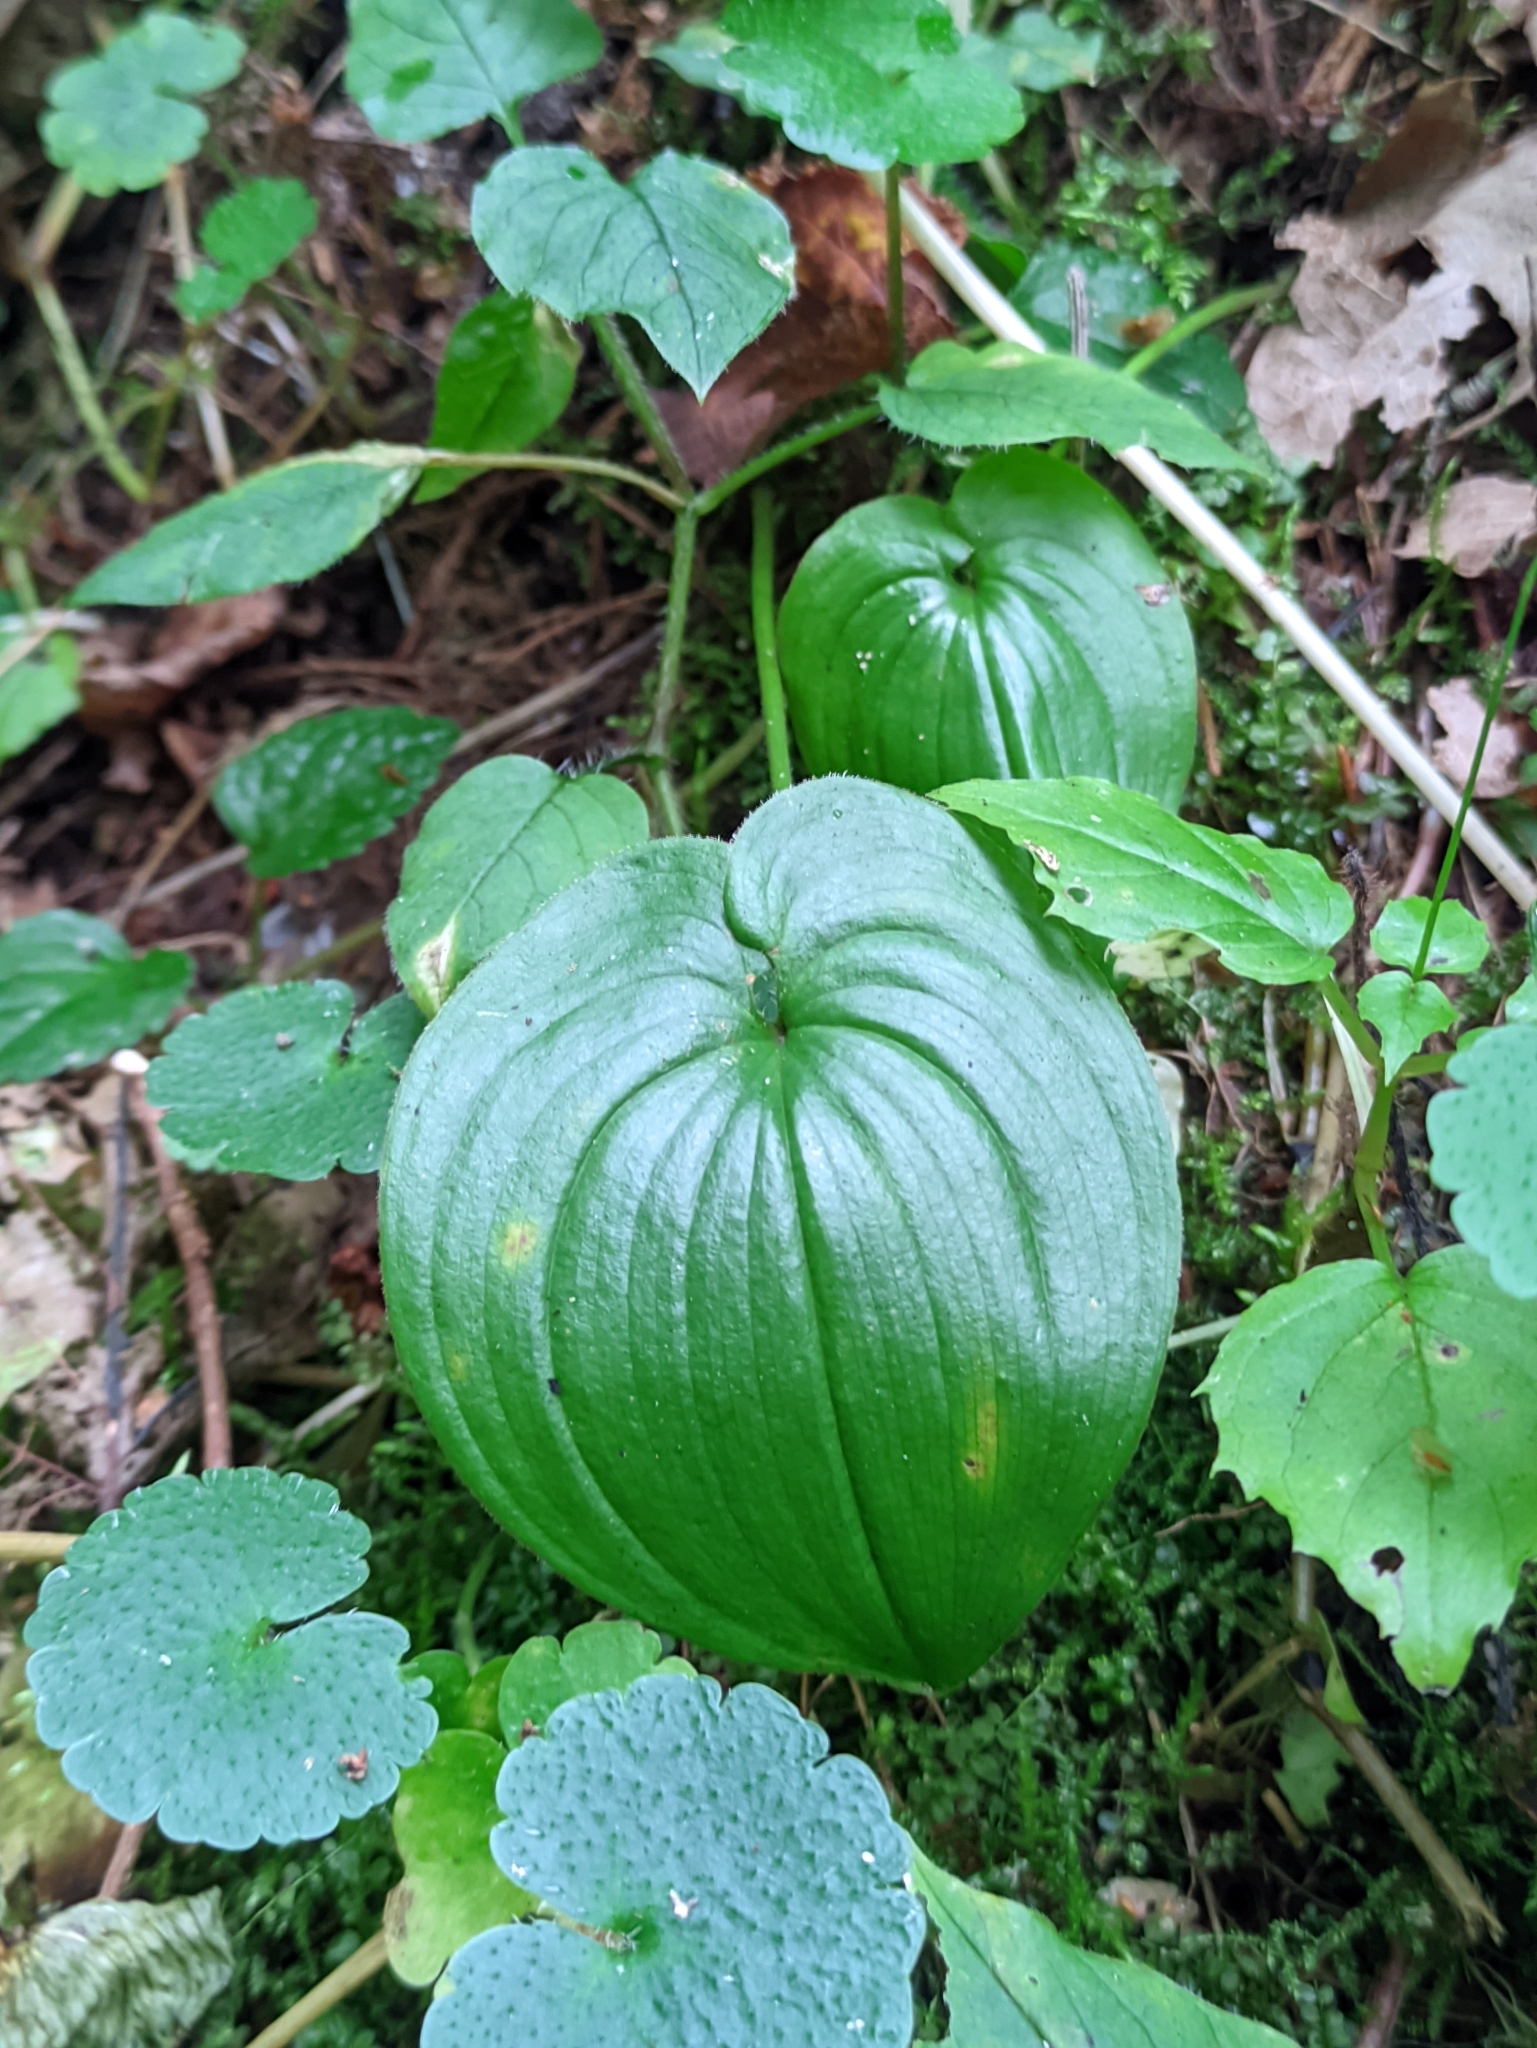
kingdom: Plantae
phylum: Tracheophyta
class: Liliopsida
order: Asparagales
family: Asparagaceae
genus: Maianthemum
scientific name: Maianthemum bifolium
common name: May lily
